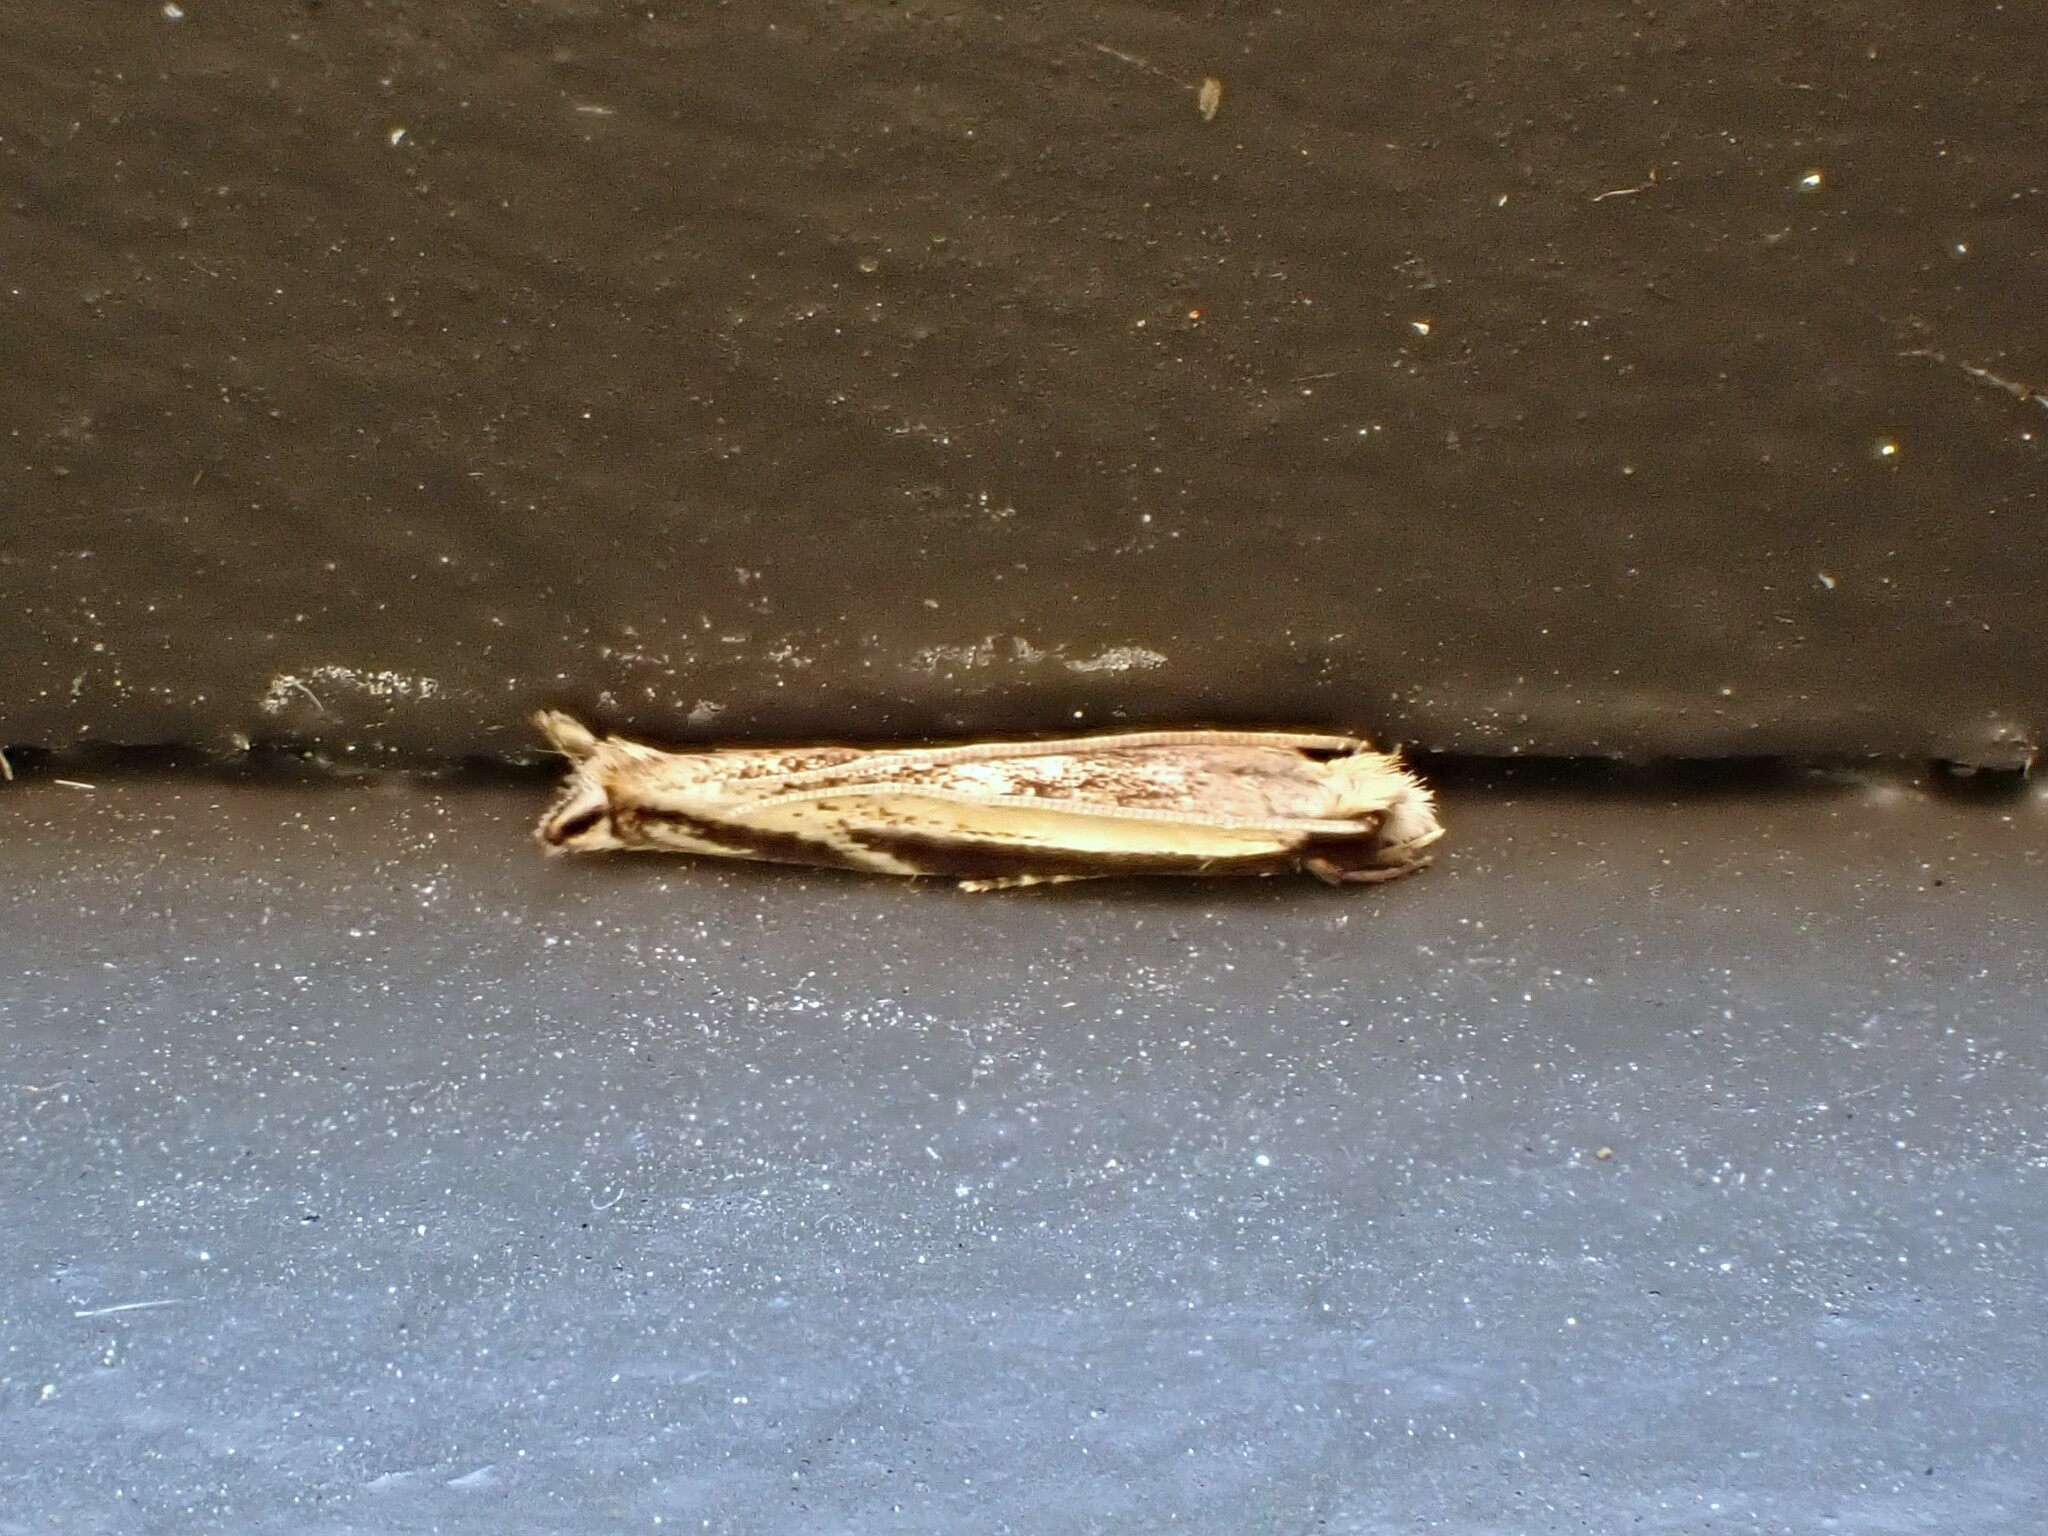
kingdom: Animalia
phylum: Arthropoda
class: Insecta
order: Lepidoptera
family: Tineidae
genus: Erechthias
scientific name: Erechthias terminella
